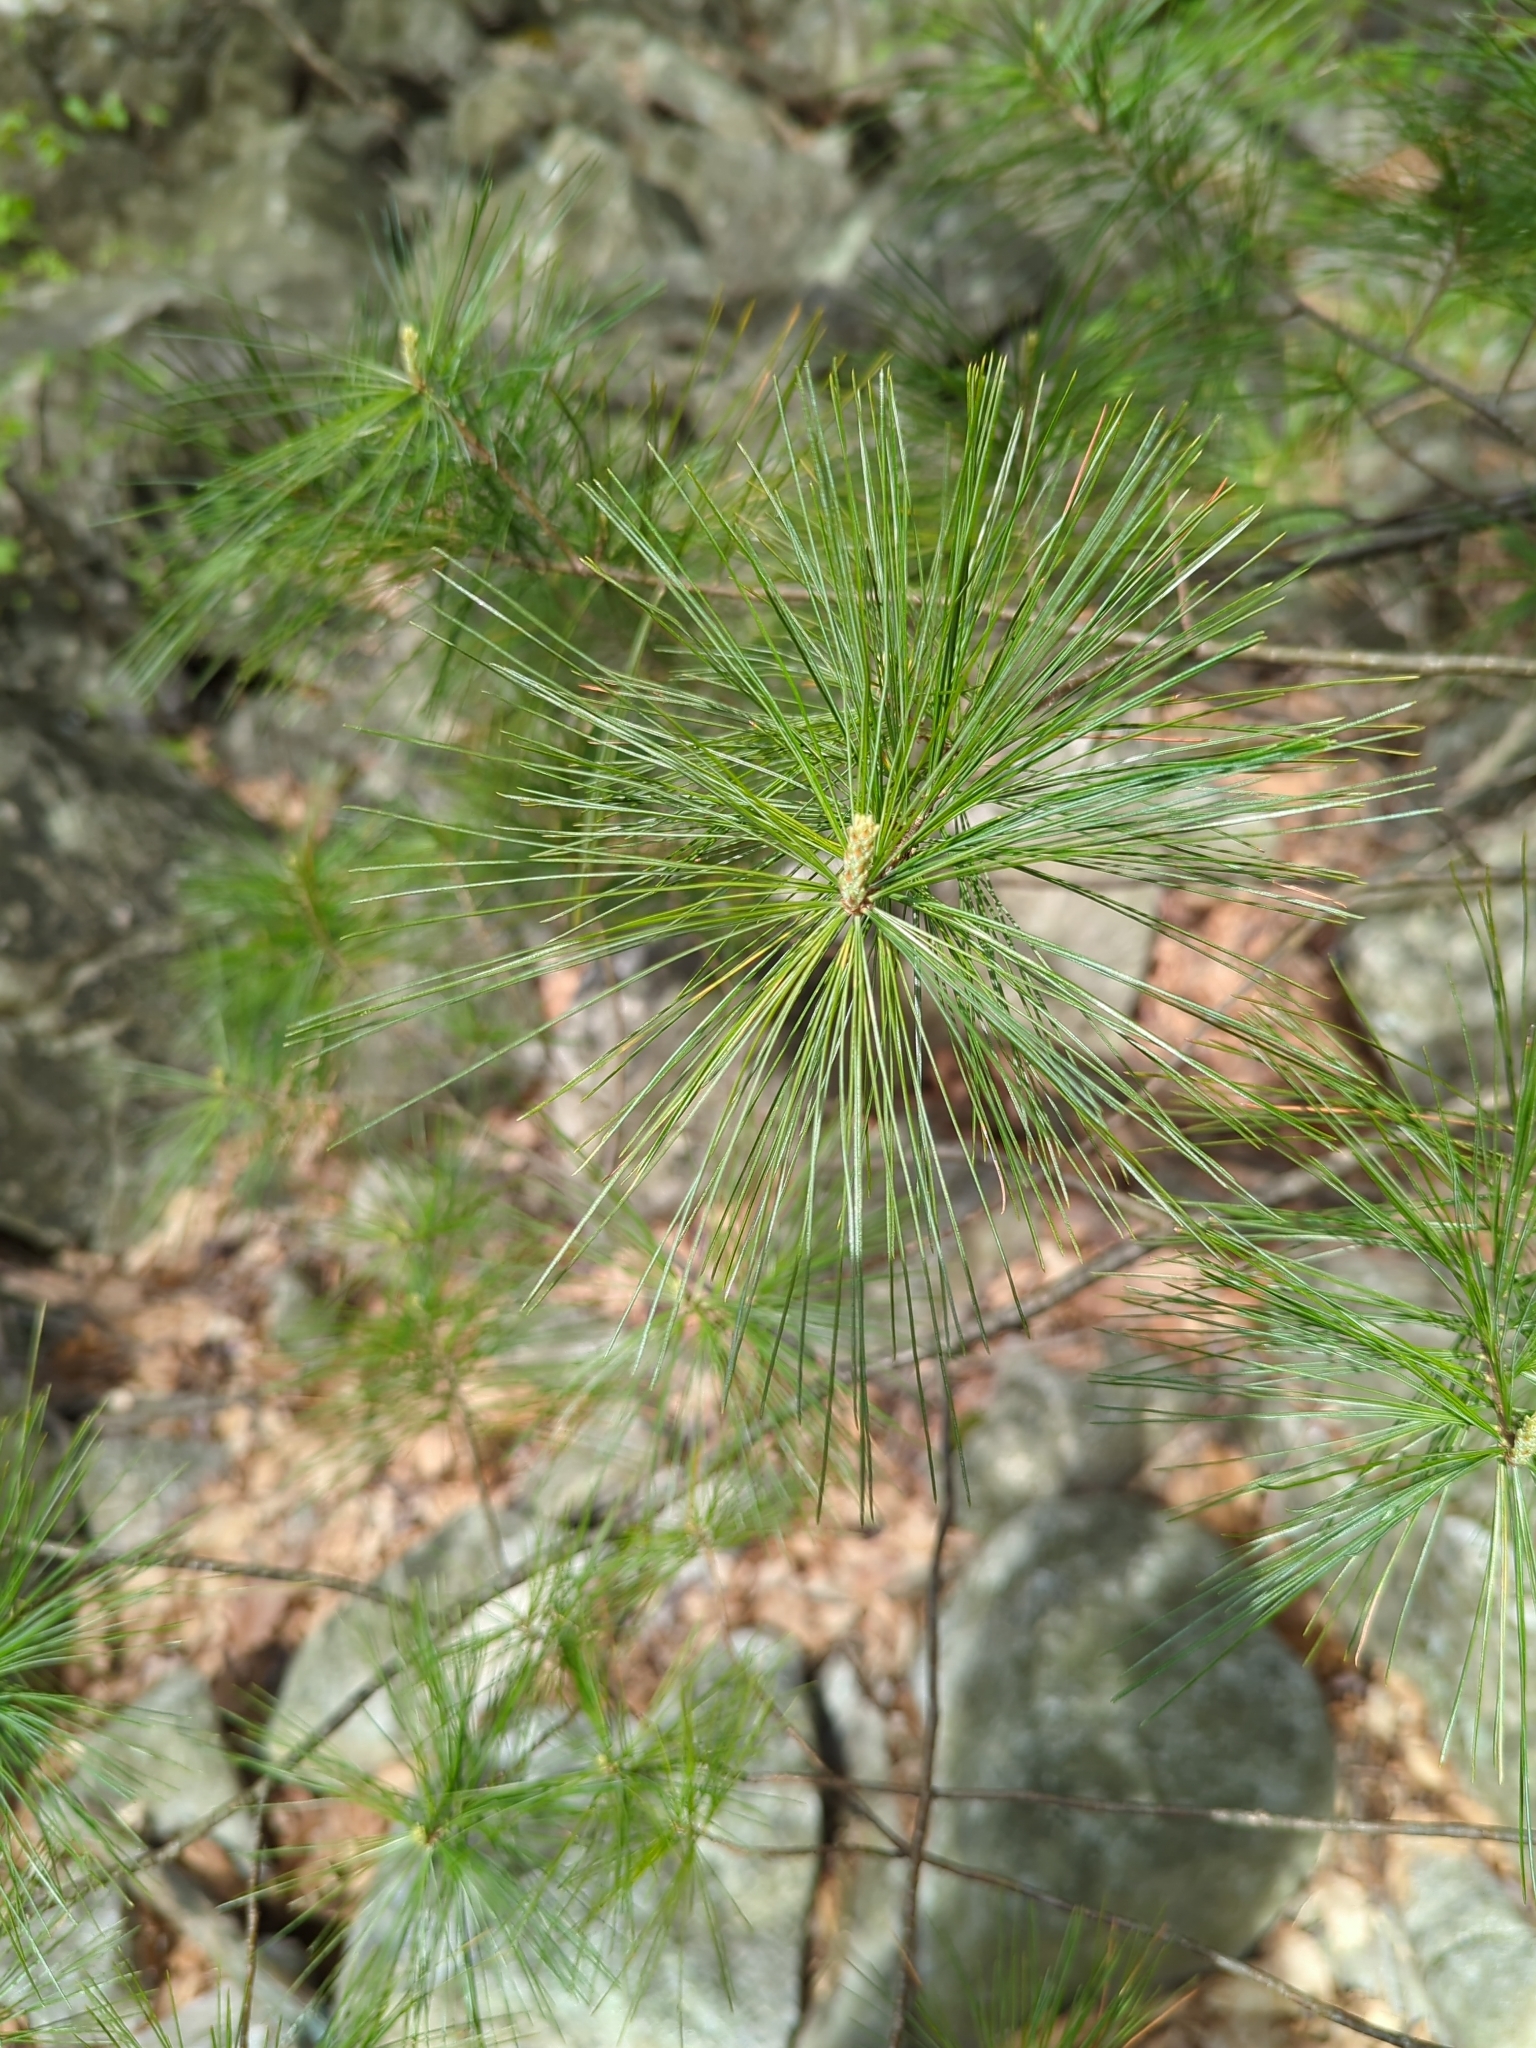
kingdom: Plantae
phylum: Tracheophyta
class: Pinopsida
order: Pinales
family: Pinaceae
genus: Pinus
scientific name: Pinus strobus
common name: Weymouth pine
